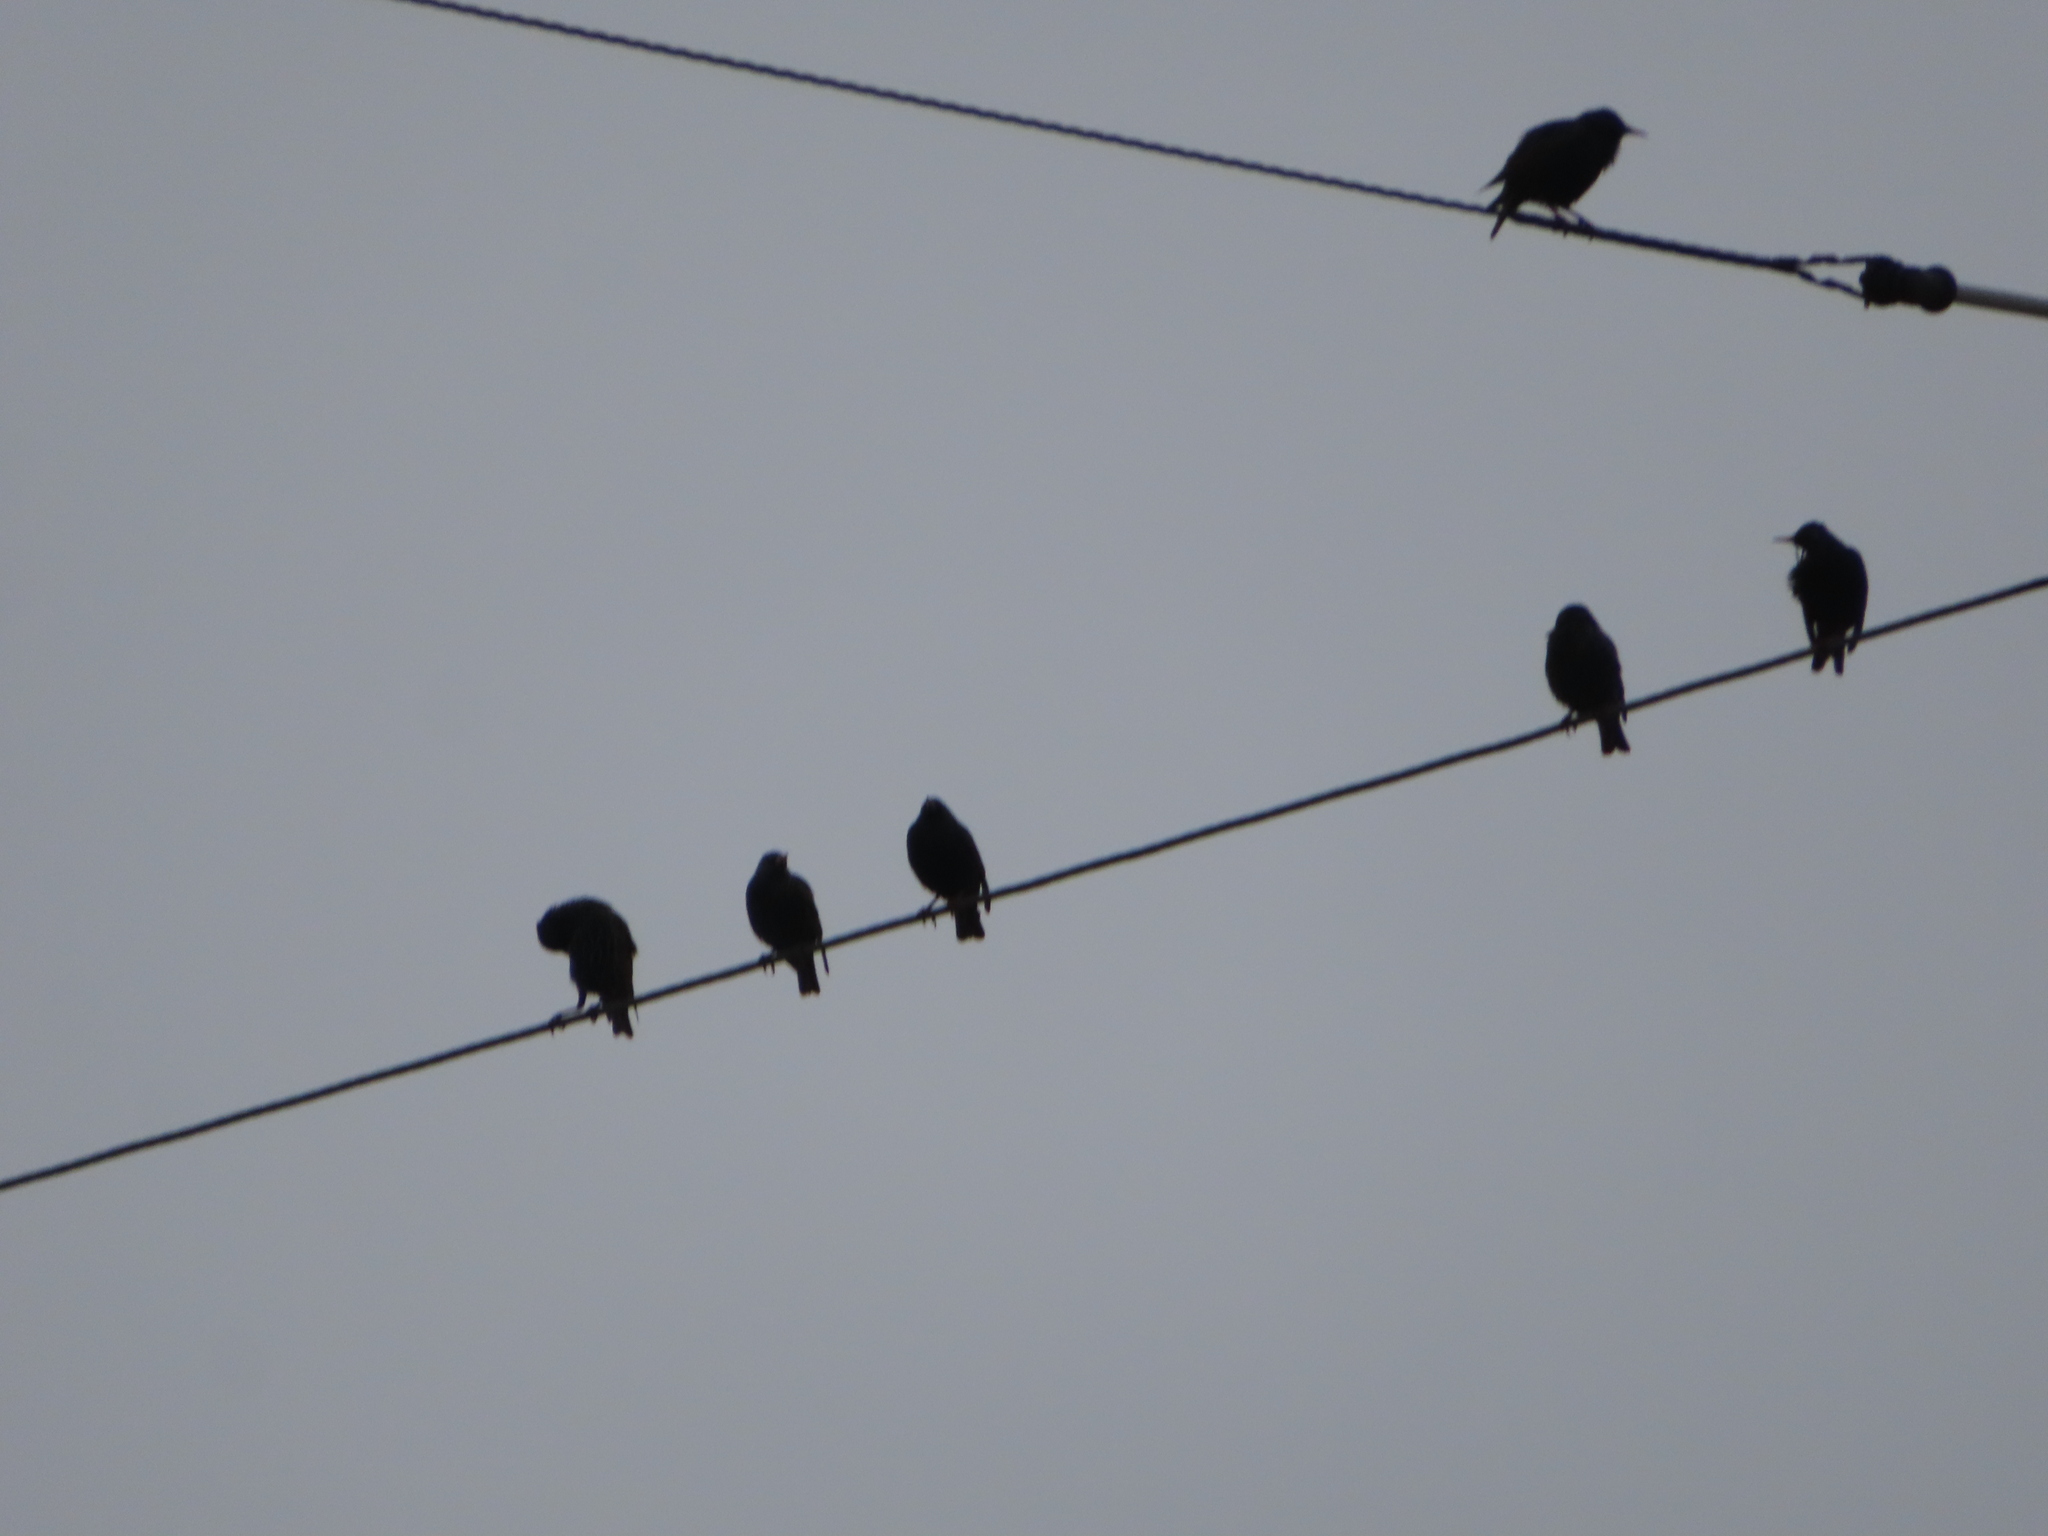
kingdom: Animalia
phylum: Chordata
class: Aves
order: Passeriformes
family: Sturnidae
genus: Sturnus
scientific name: Sturnus vulgaris
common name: Common starling
